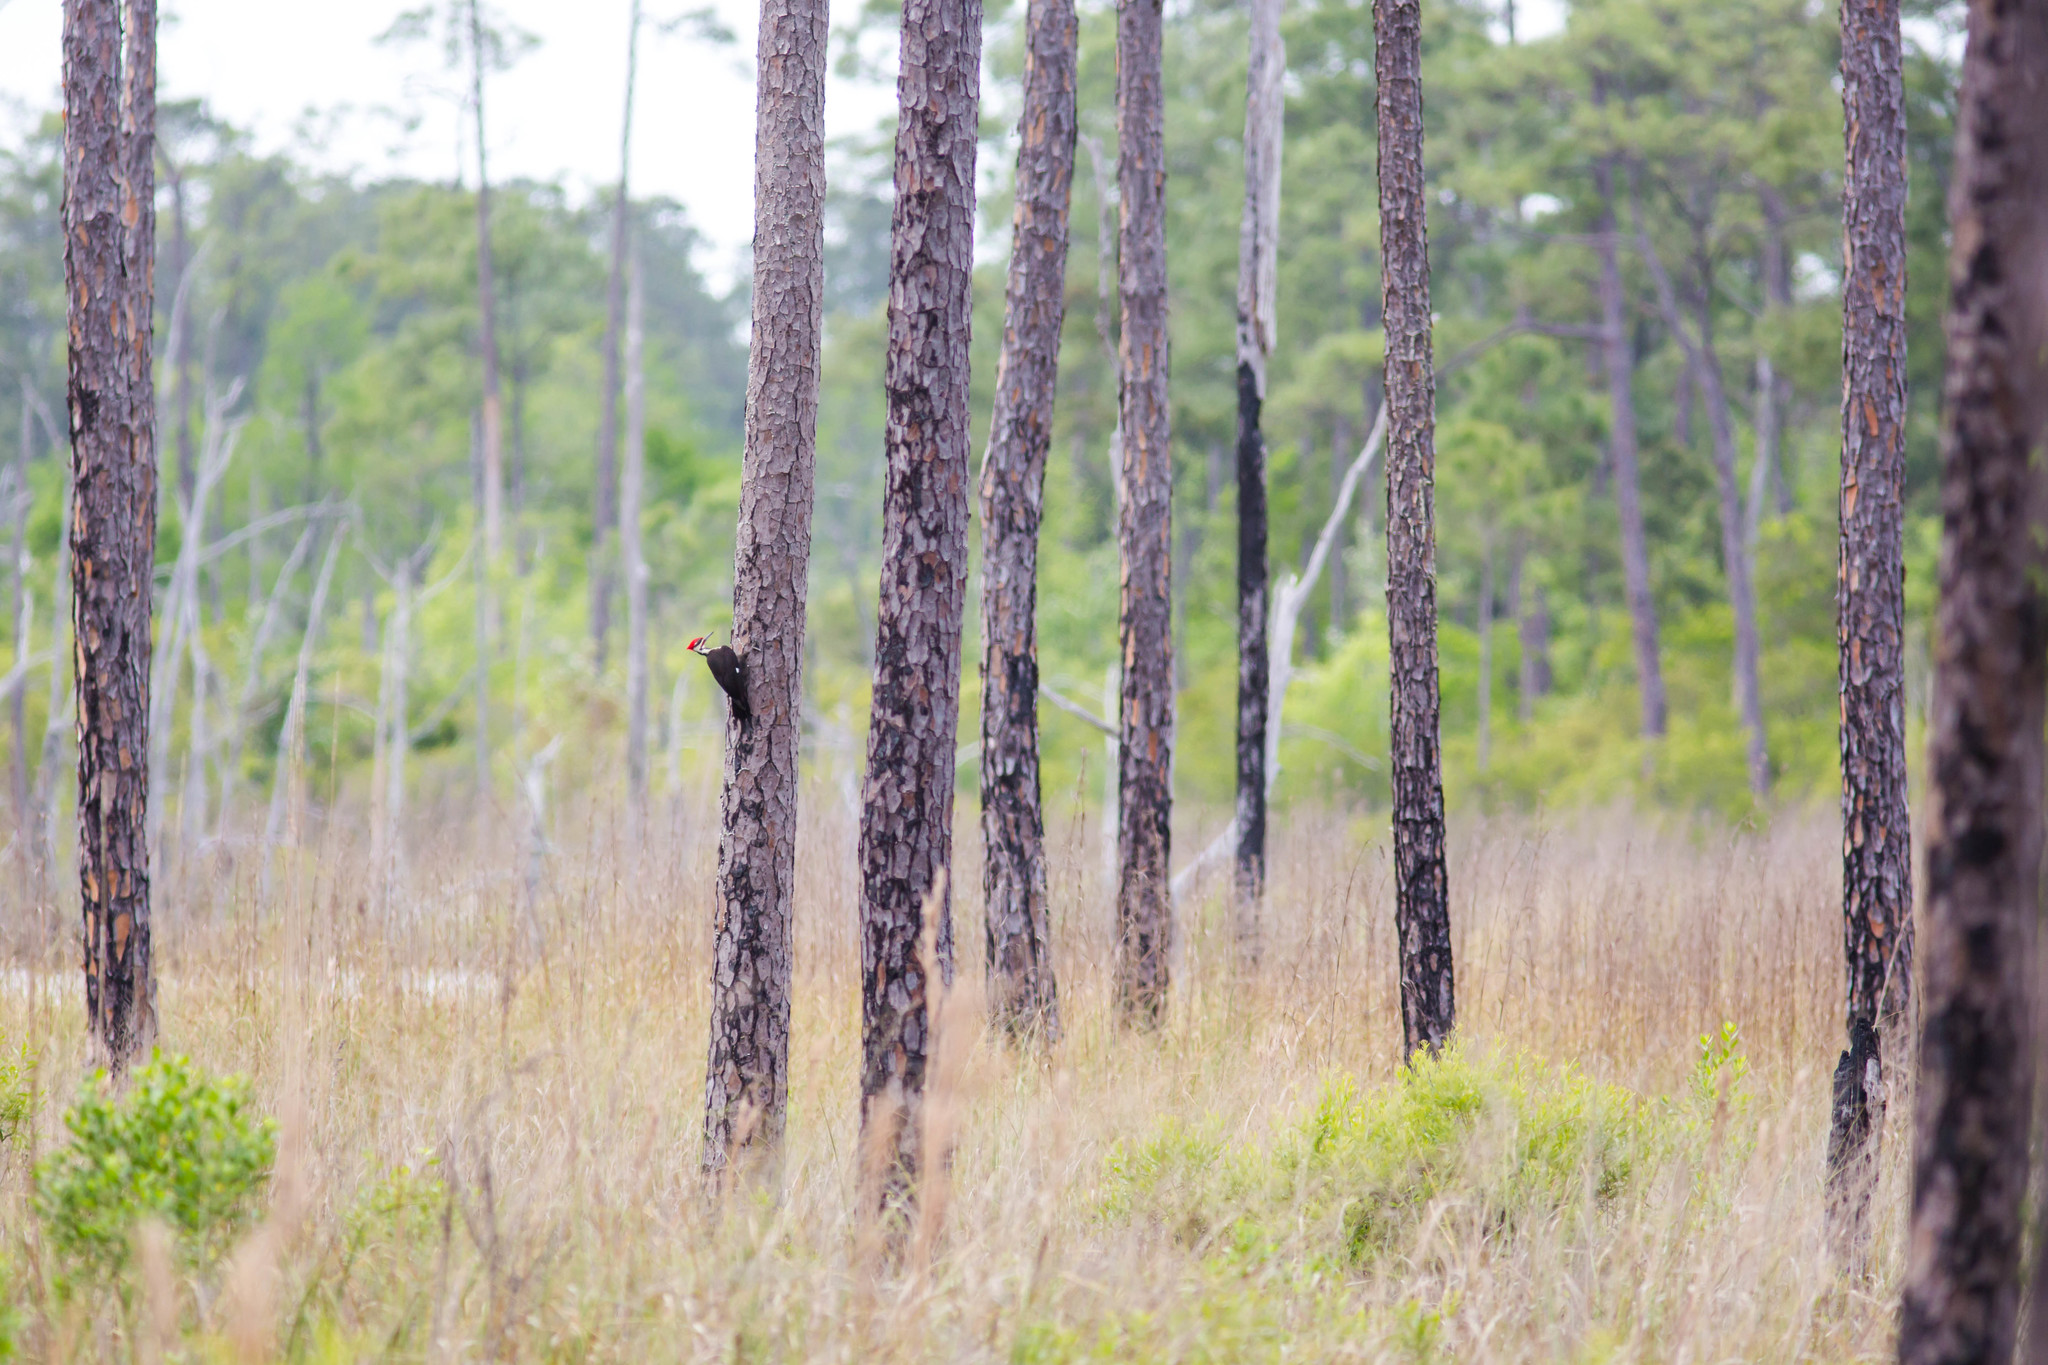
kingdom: Animalia
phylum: Chordata
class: Aves
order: Piciformes
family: Picidae
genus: Dryocopus
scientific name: Dryocopus pileatus
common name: Pileated woodpecker
